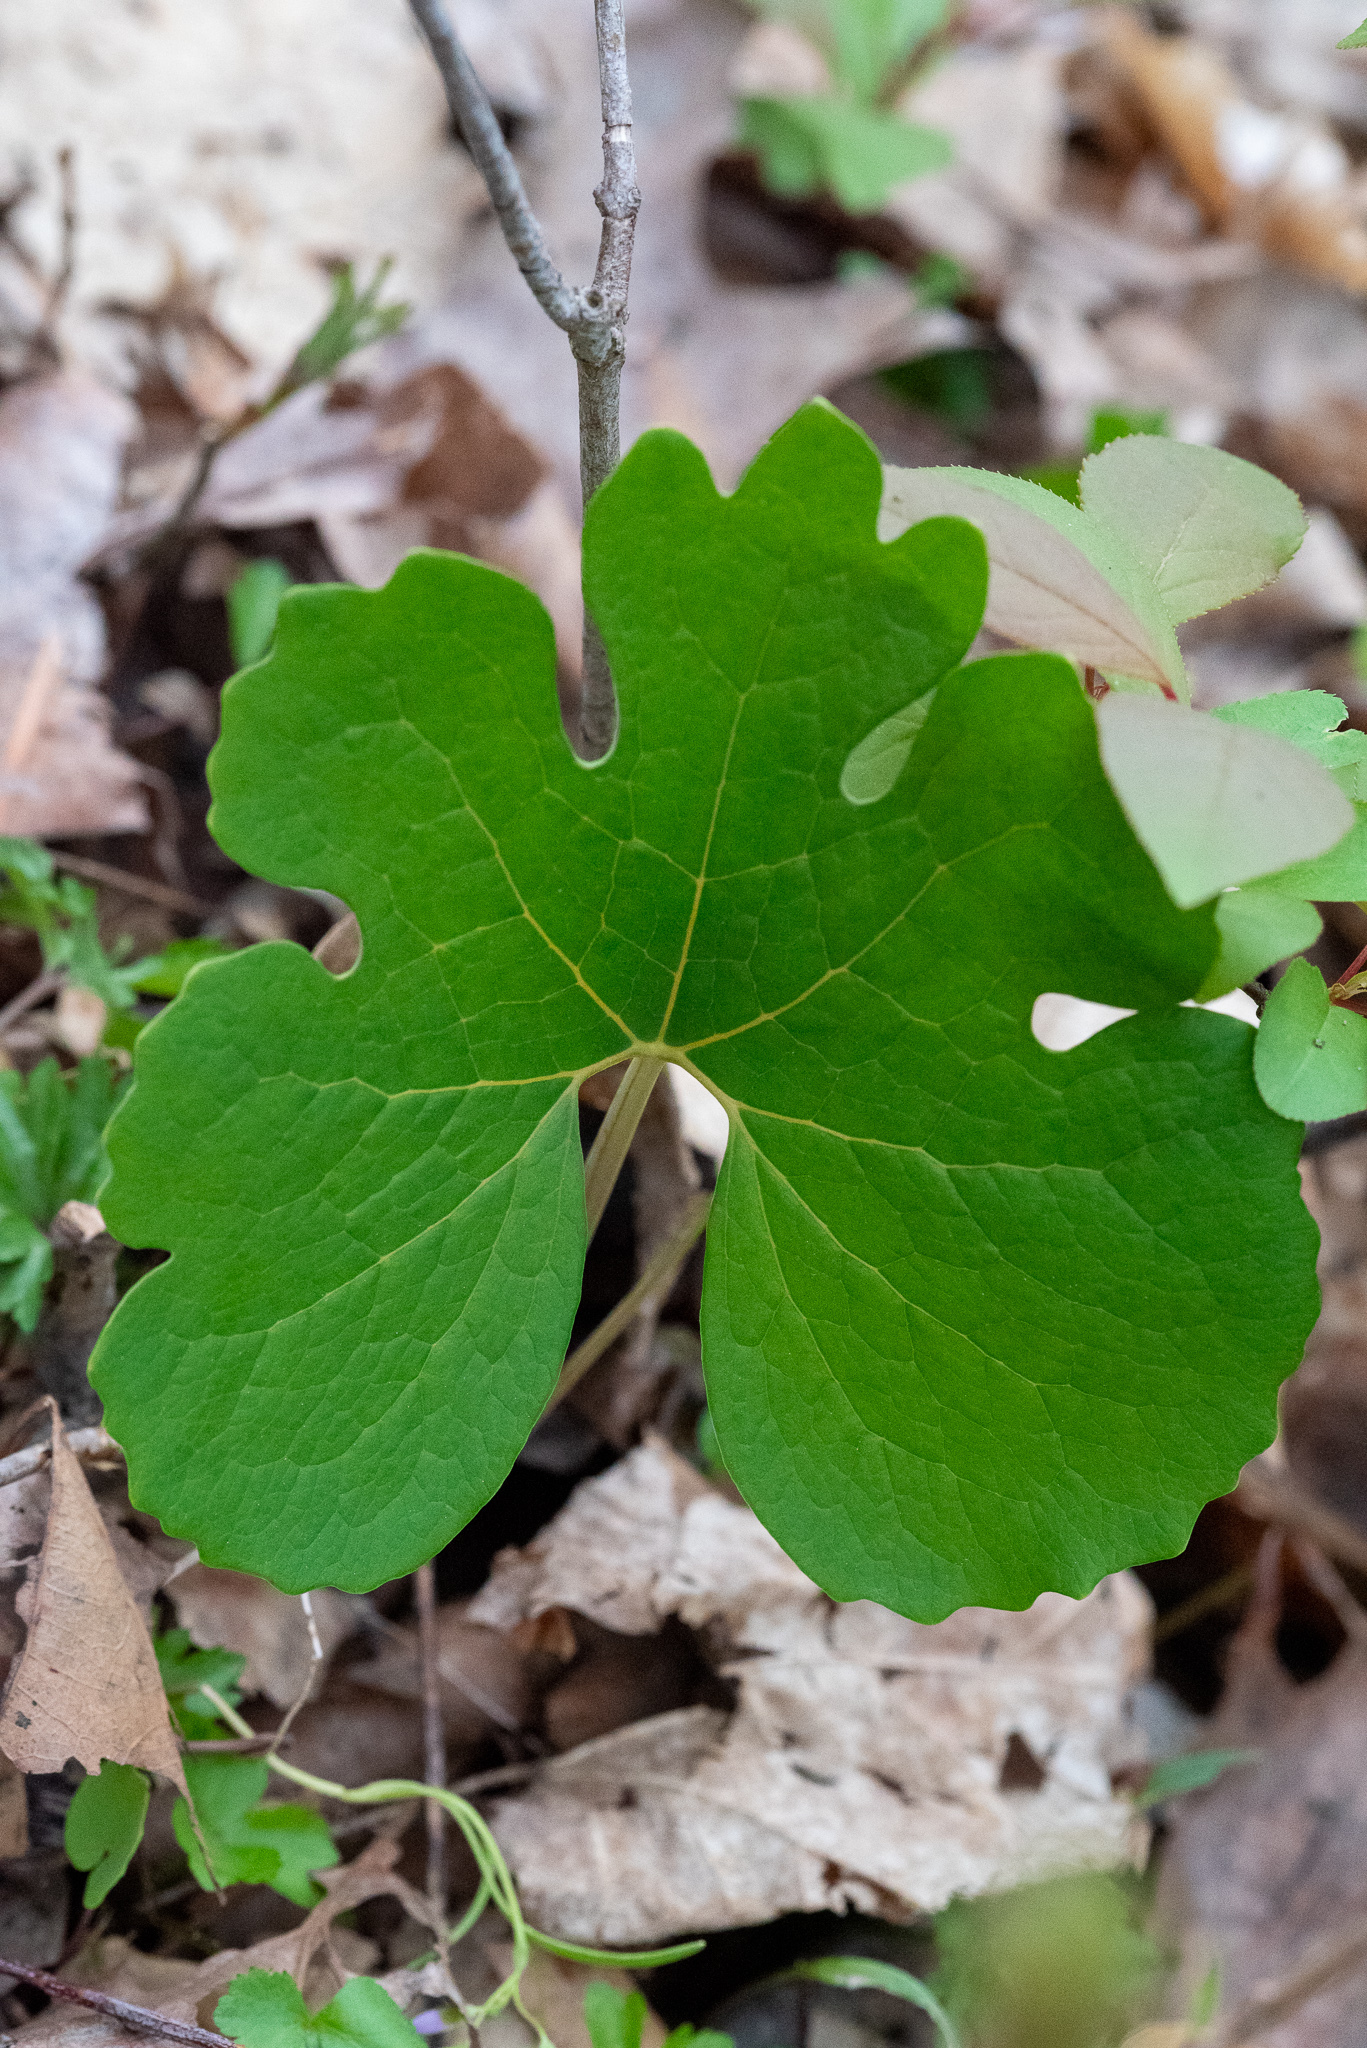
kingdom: Plantae
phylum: Tracheophyta
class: Magnoliopsida
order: Ranunculales
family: Papaveraceae
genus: Sanguinaria
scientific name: Sanguinaria canadensis
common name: Bloodroot
